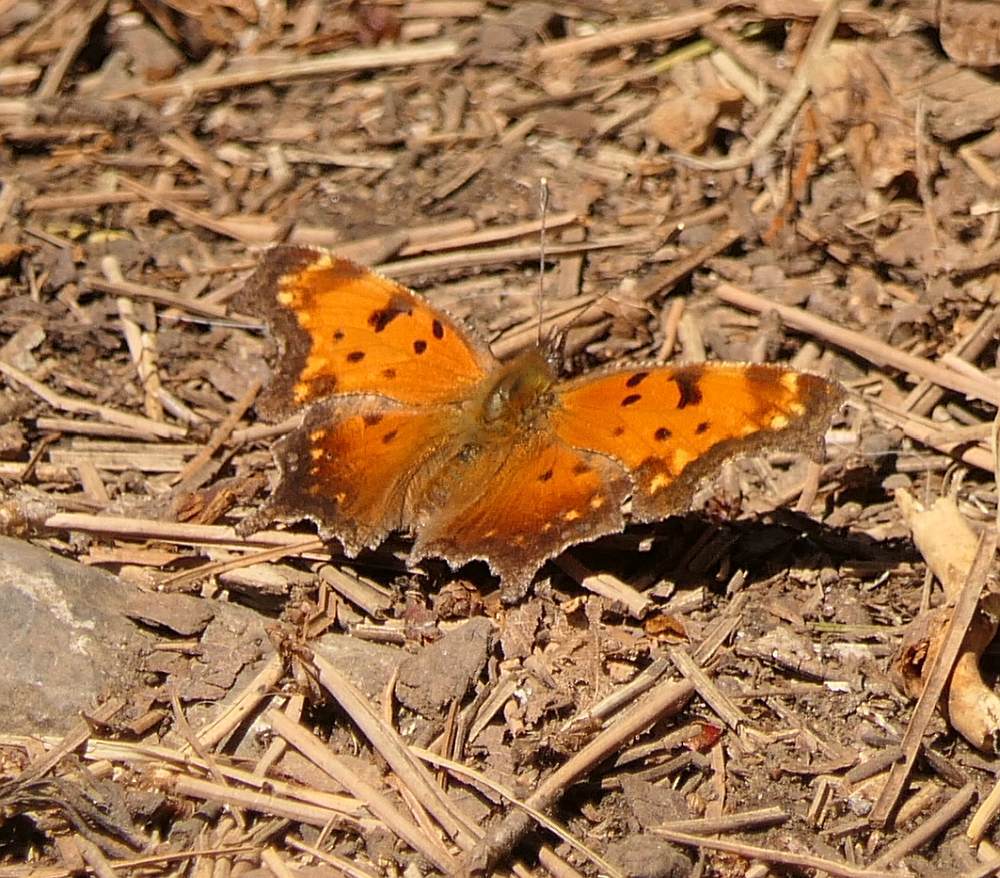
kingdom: Animalia
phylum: Arthropoda
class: Insecta
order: Lepidoptera
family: Nymphalidae
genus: Polygonia
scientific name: Polygonia progne
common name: Gray comma
